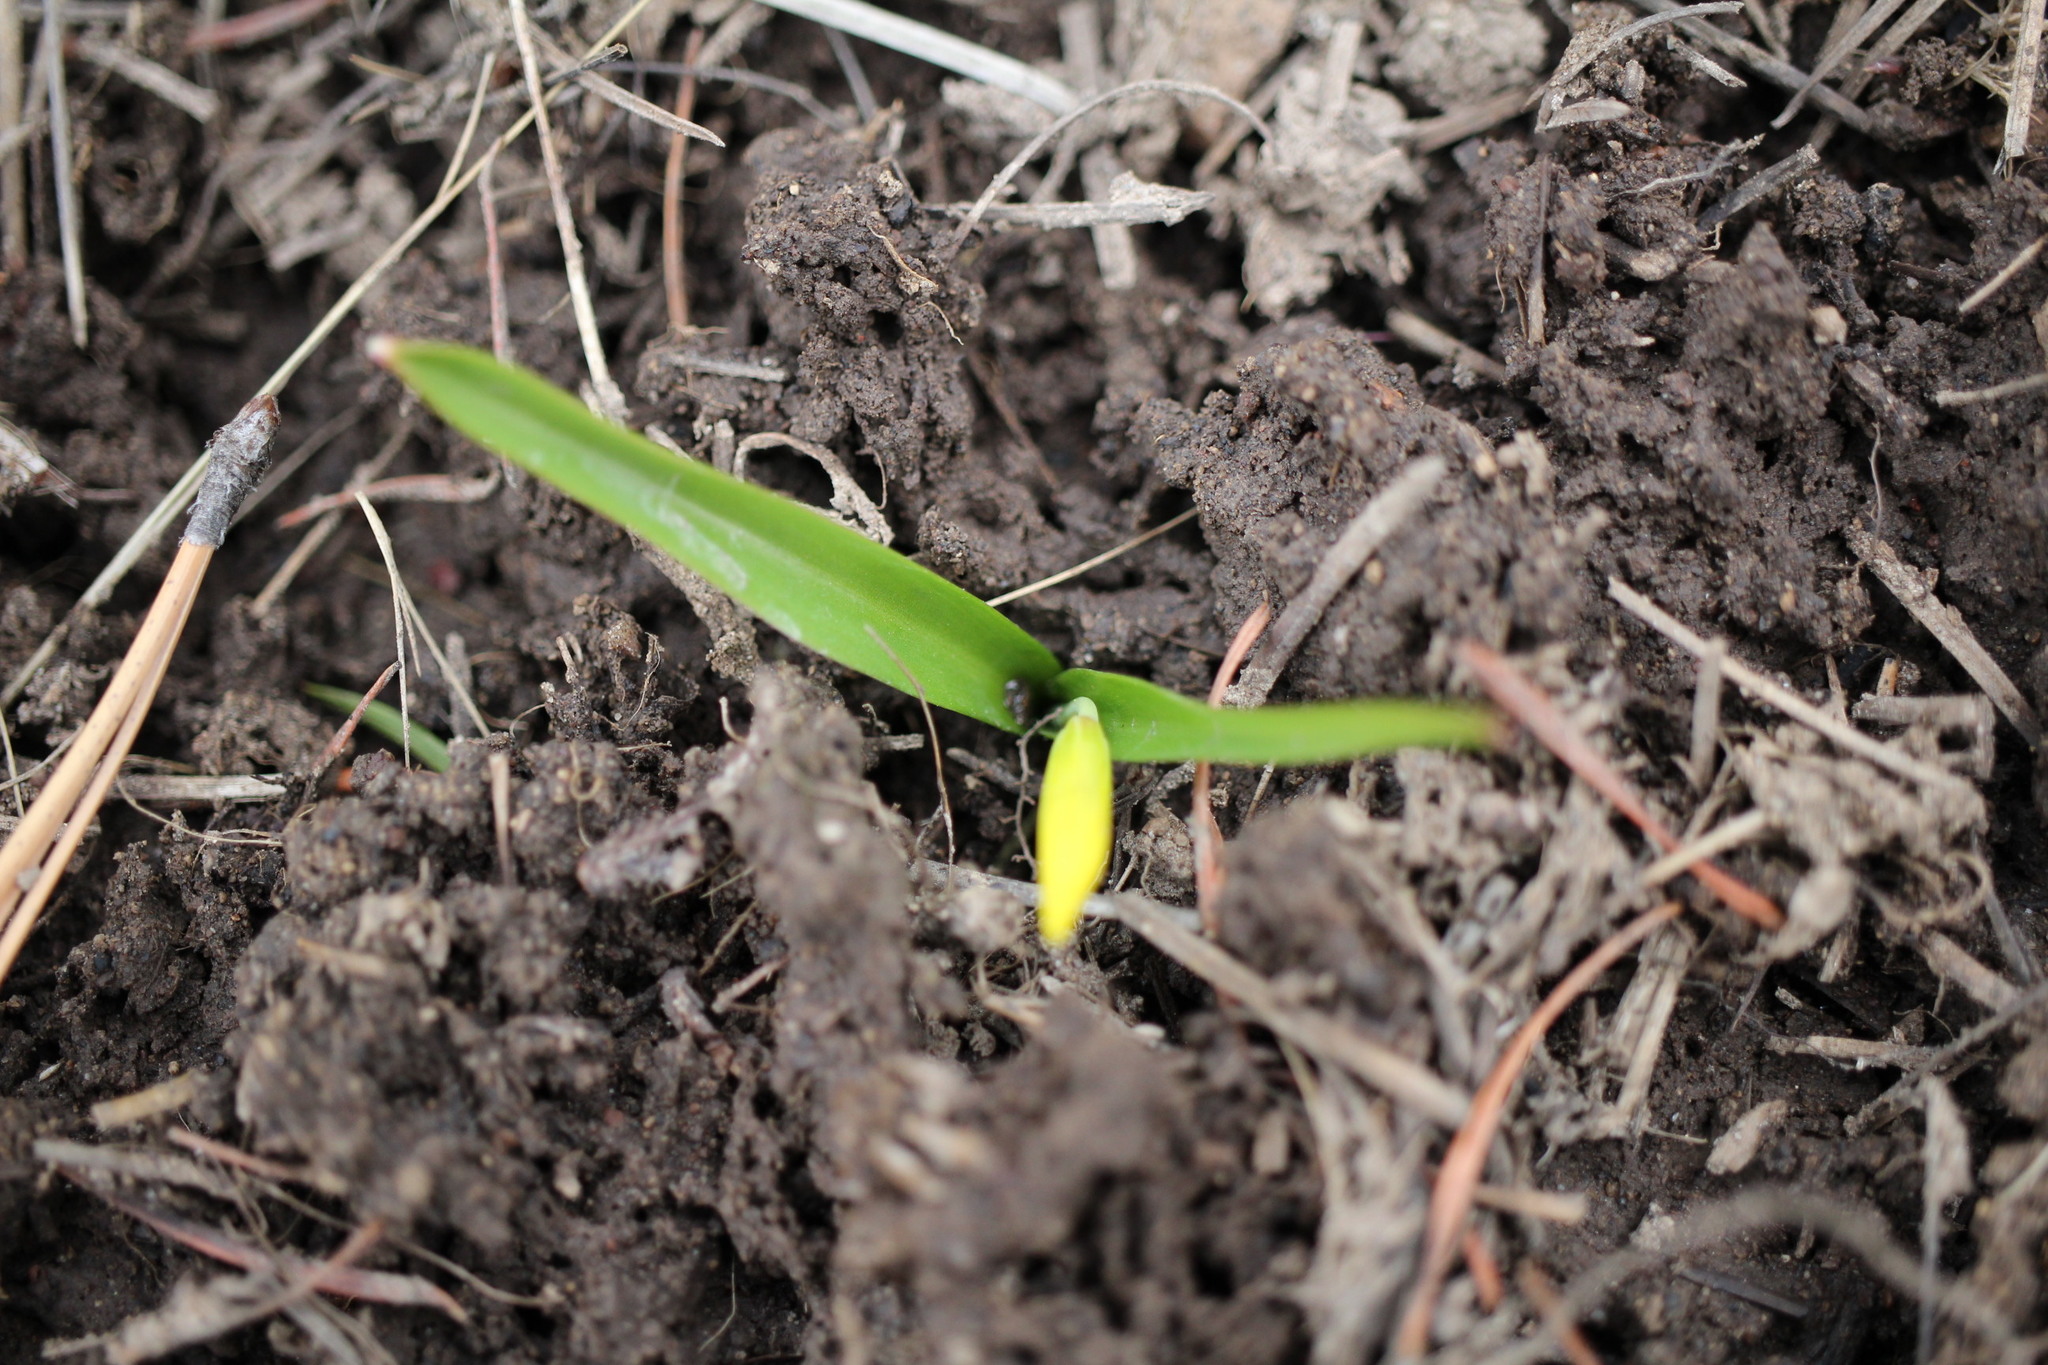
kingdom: Plantae
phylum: Tracheophyta
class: Liliopsida
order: Liliales
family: Liliaceae
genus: Erythronium
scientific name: Erythronium grandiflorum
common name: Avalanche-lily
